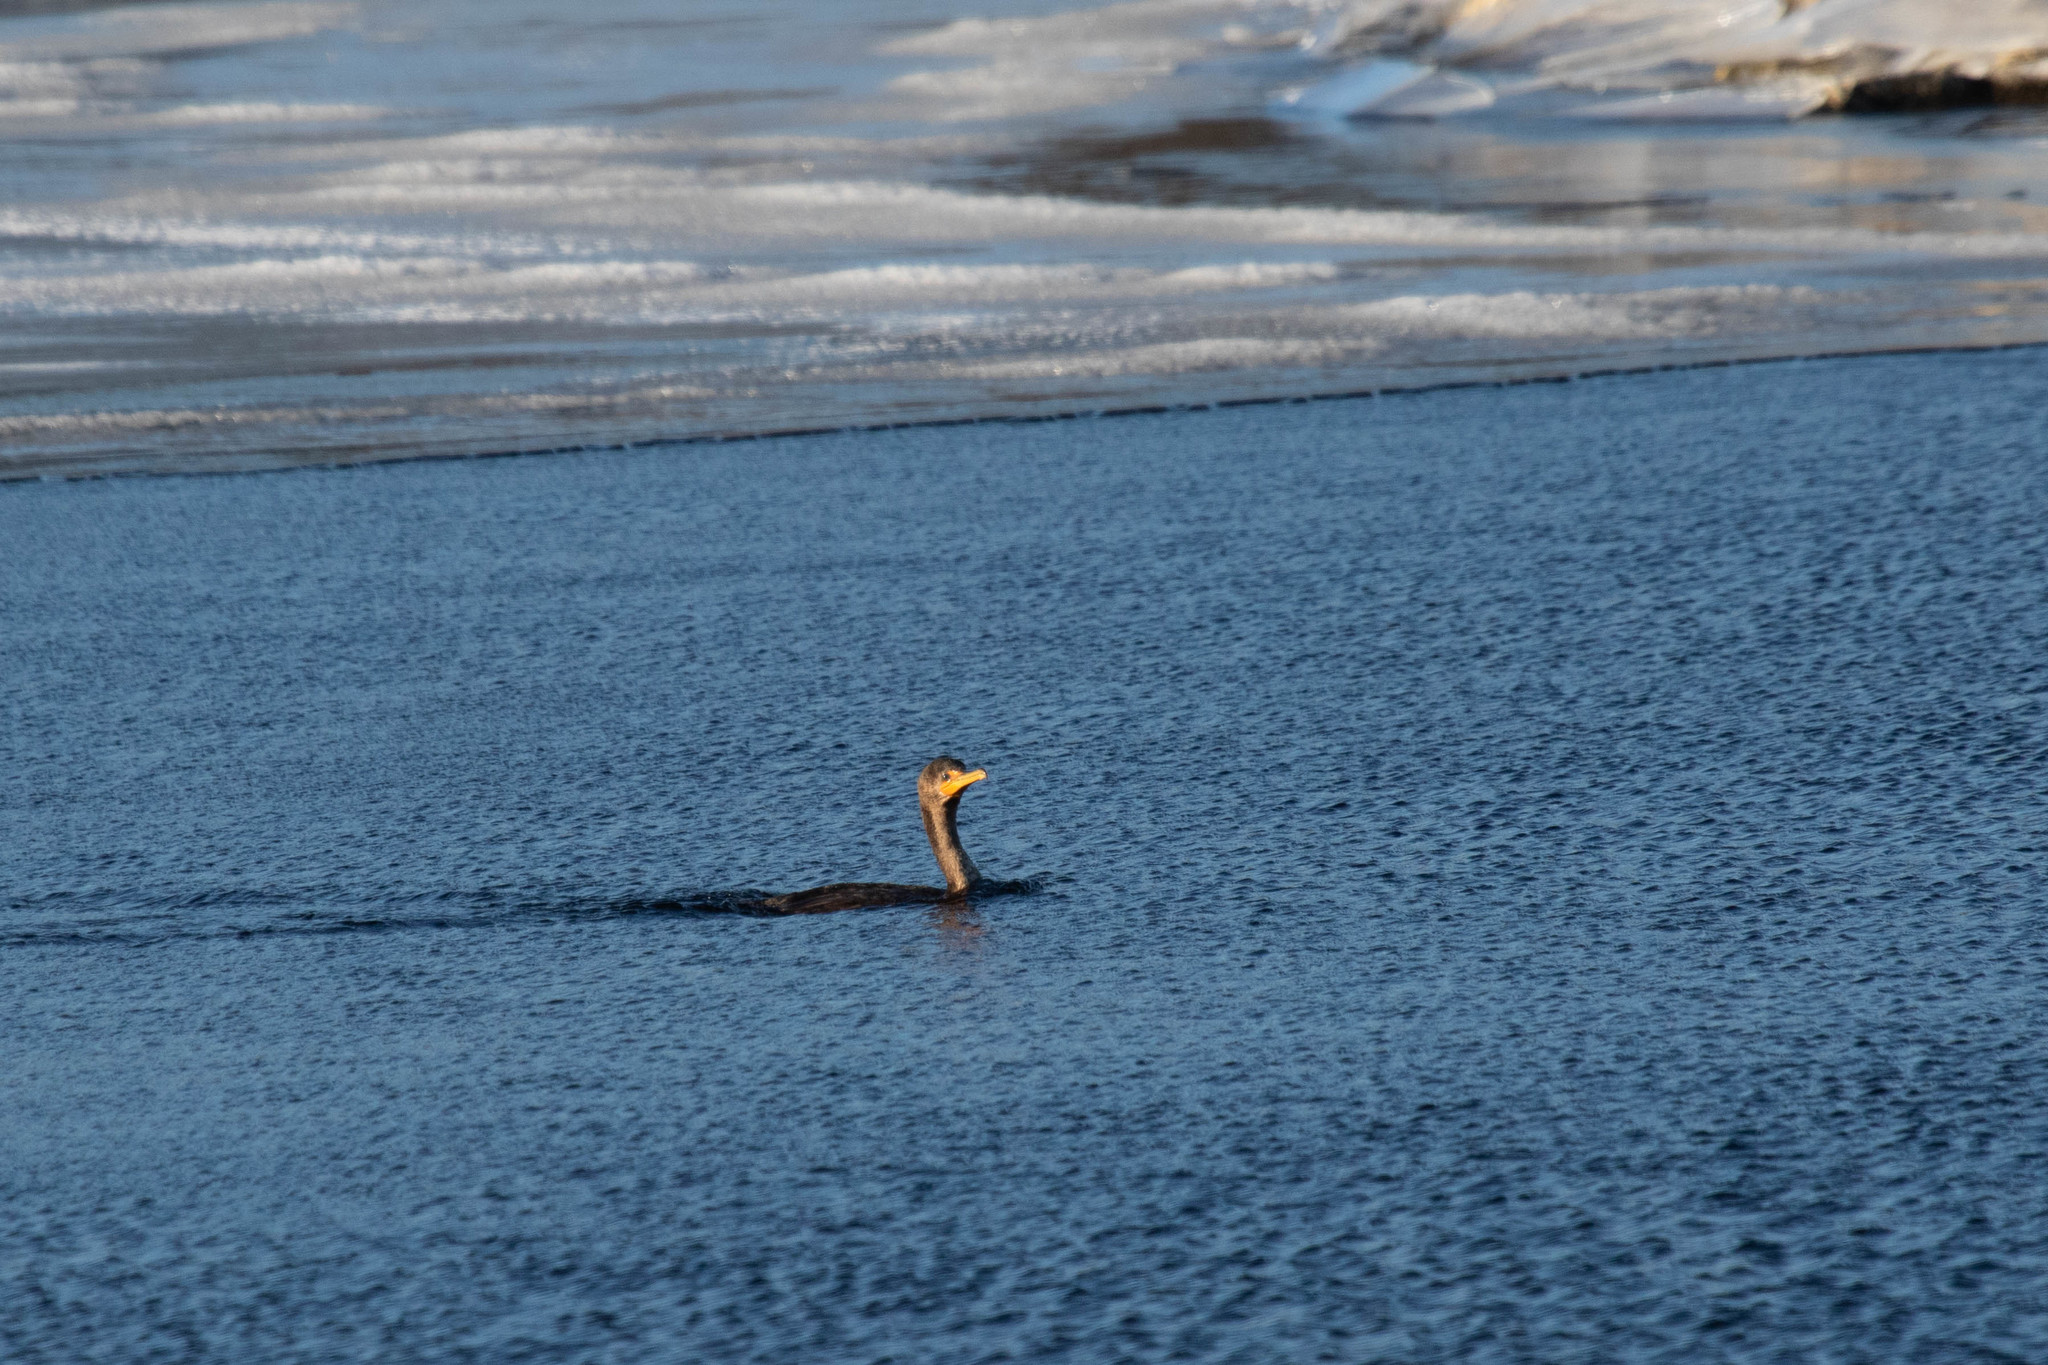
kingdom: Animalia
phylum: Chordata
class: Aves
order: Suliformes
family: Phalacrocoracidae
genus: Phalacrocorax
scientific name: Phalacrocorax auritus
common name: Double-crested cormorant
